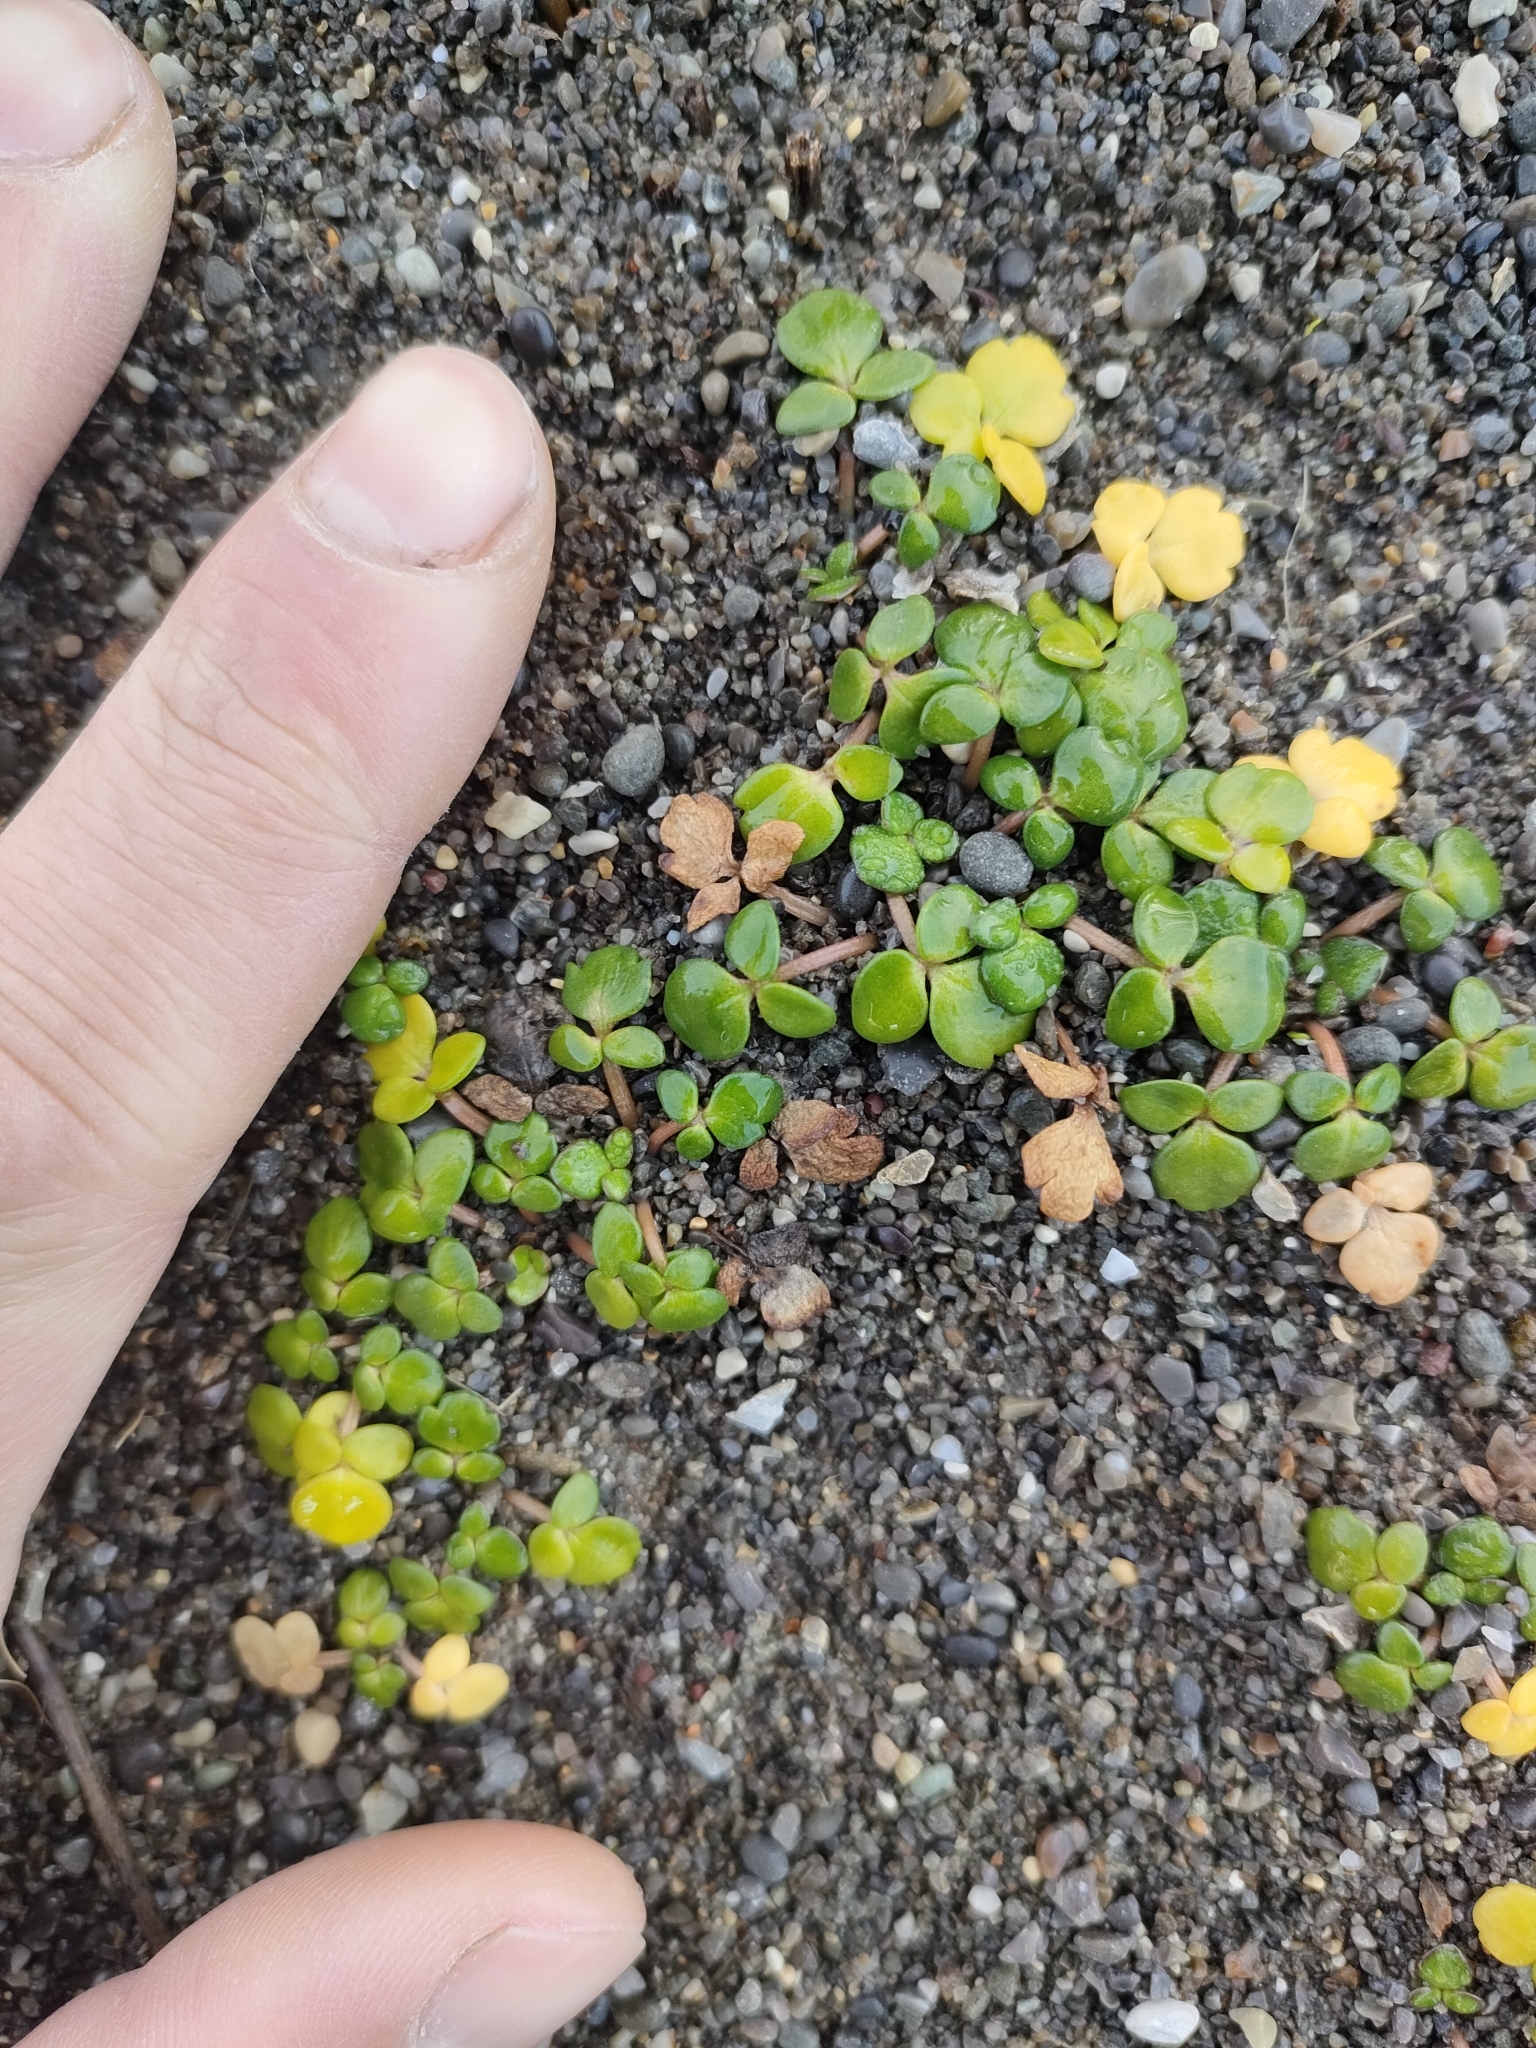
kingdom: Plantae
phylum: Tracheophyta
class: Magnoliopsida
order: Ranunculales
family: Ranunculaceae
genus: Ranunculus
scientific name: Ranunculus acaulis
